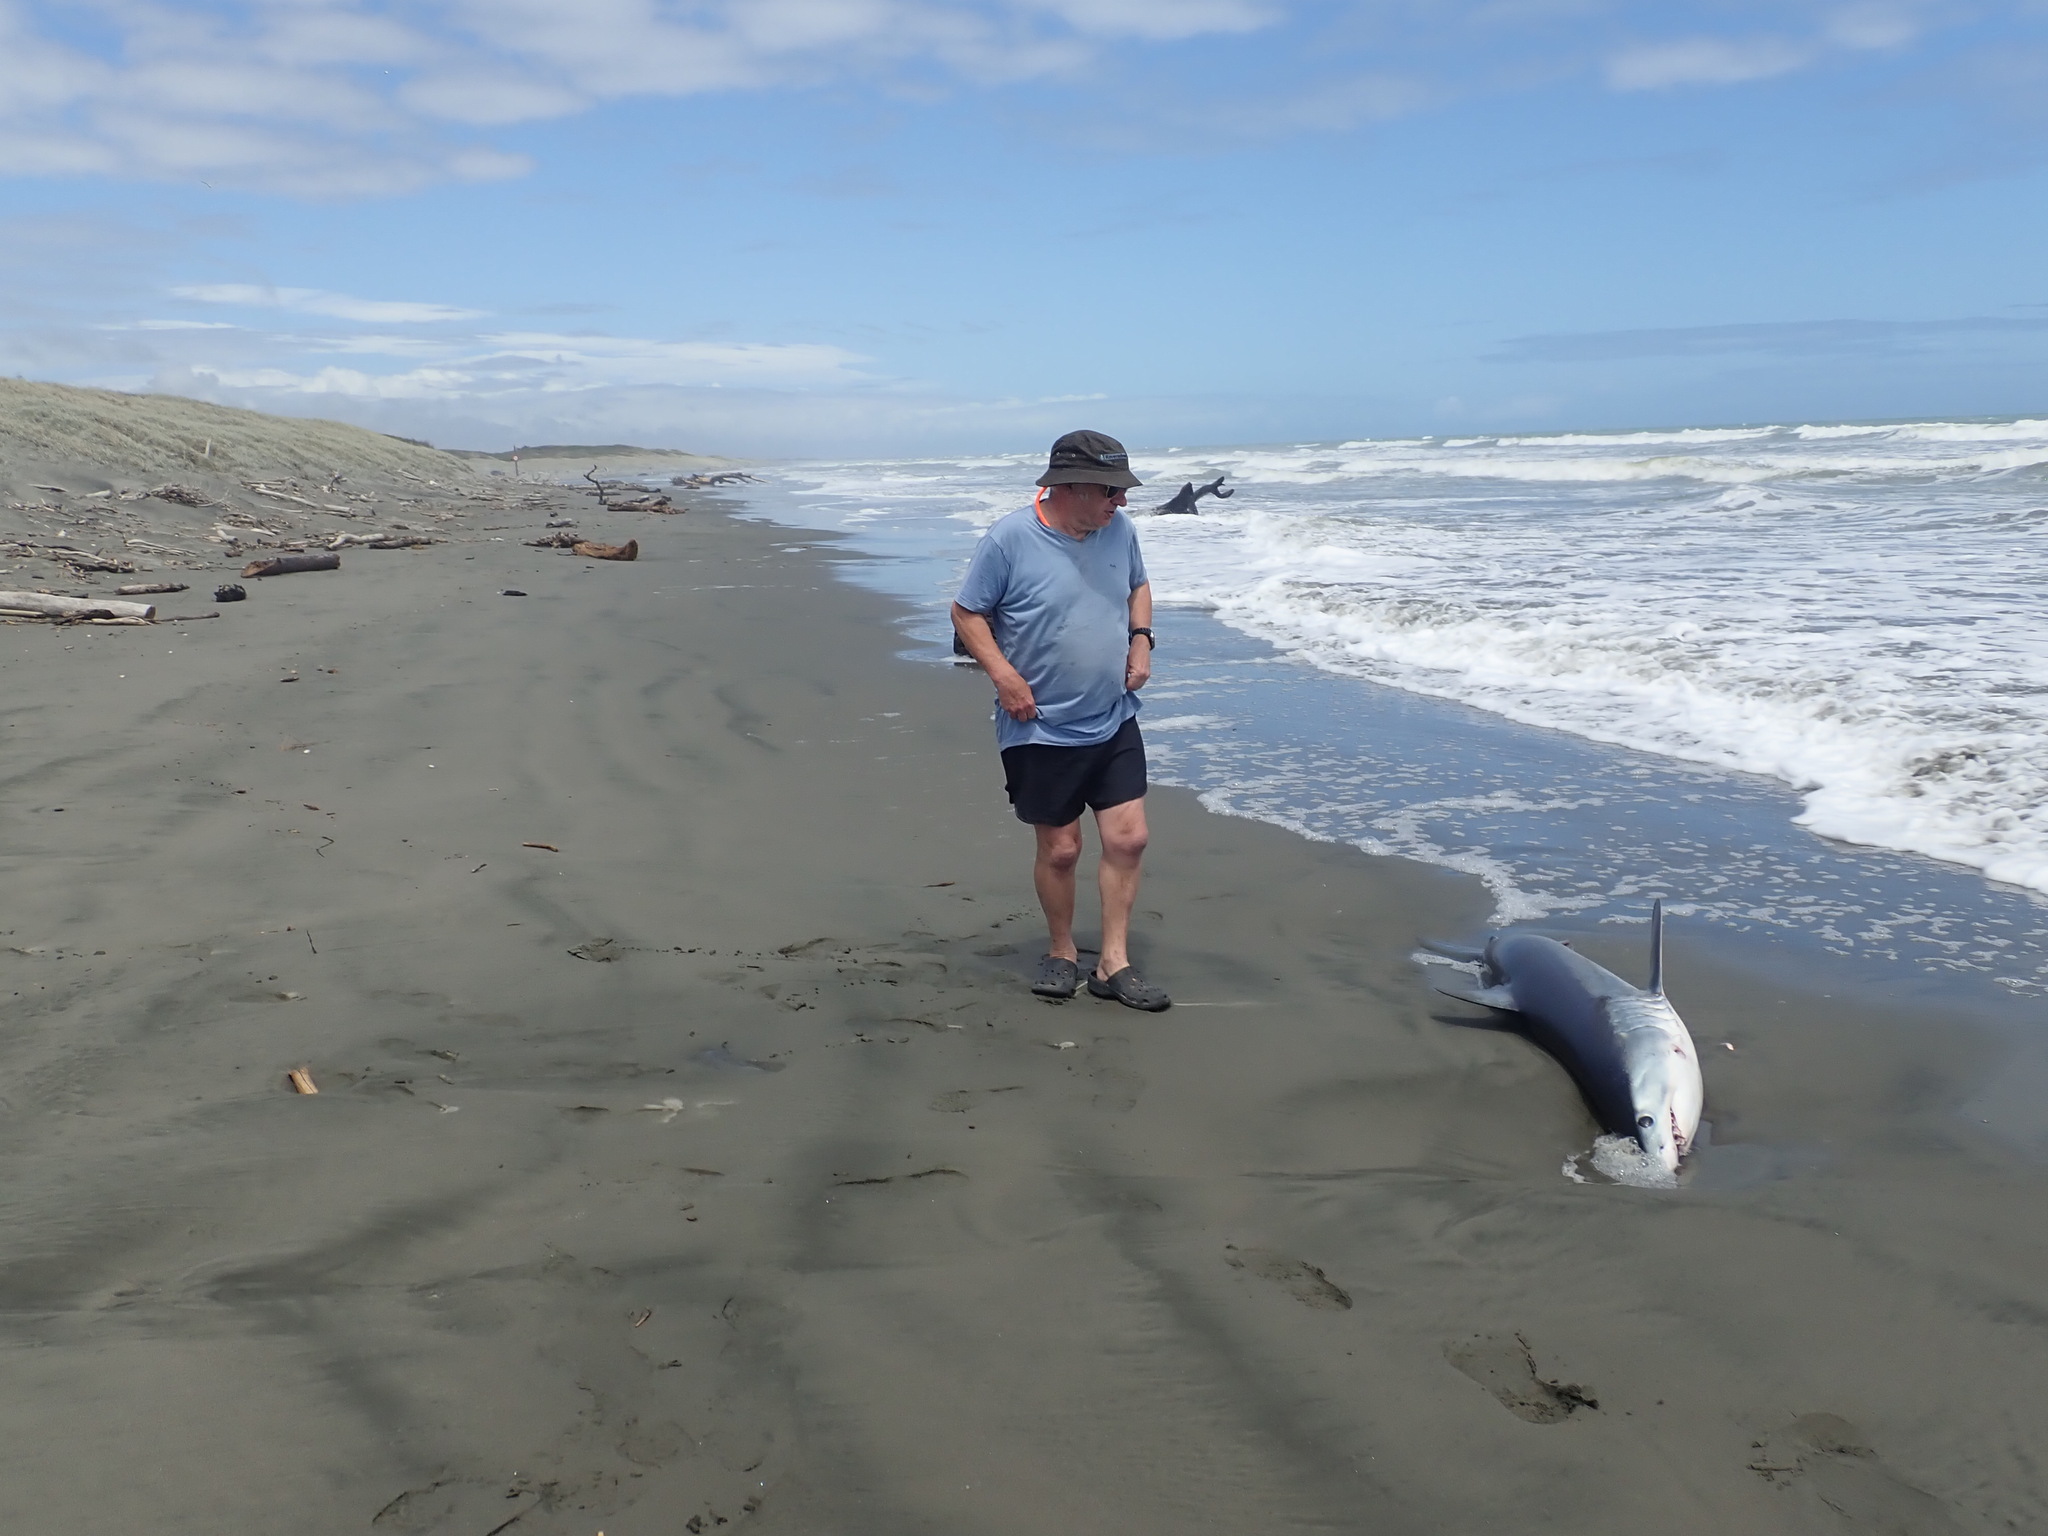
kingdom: Animalia
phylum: Chordata
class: Elasmobranchii
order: Lamniformes
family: Lamnidae
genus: Isurus
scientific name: Isurus oxyrinchus
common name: Shortfin mako
